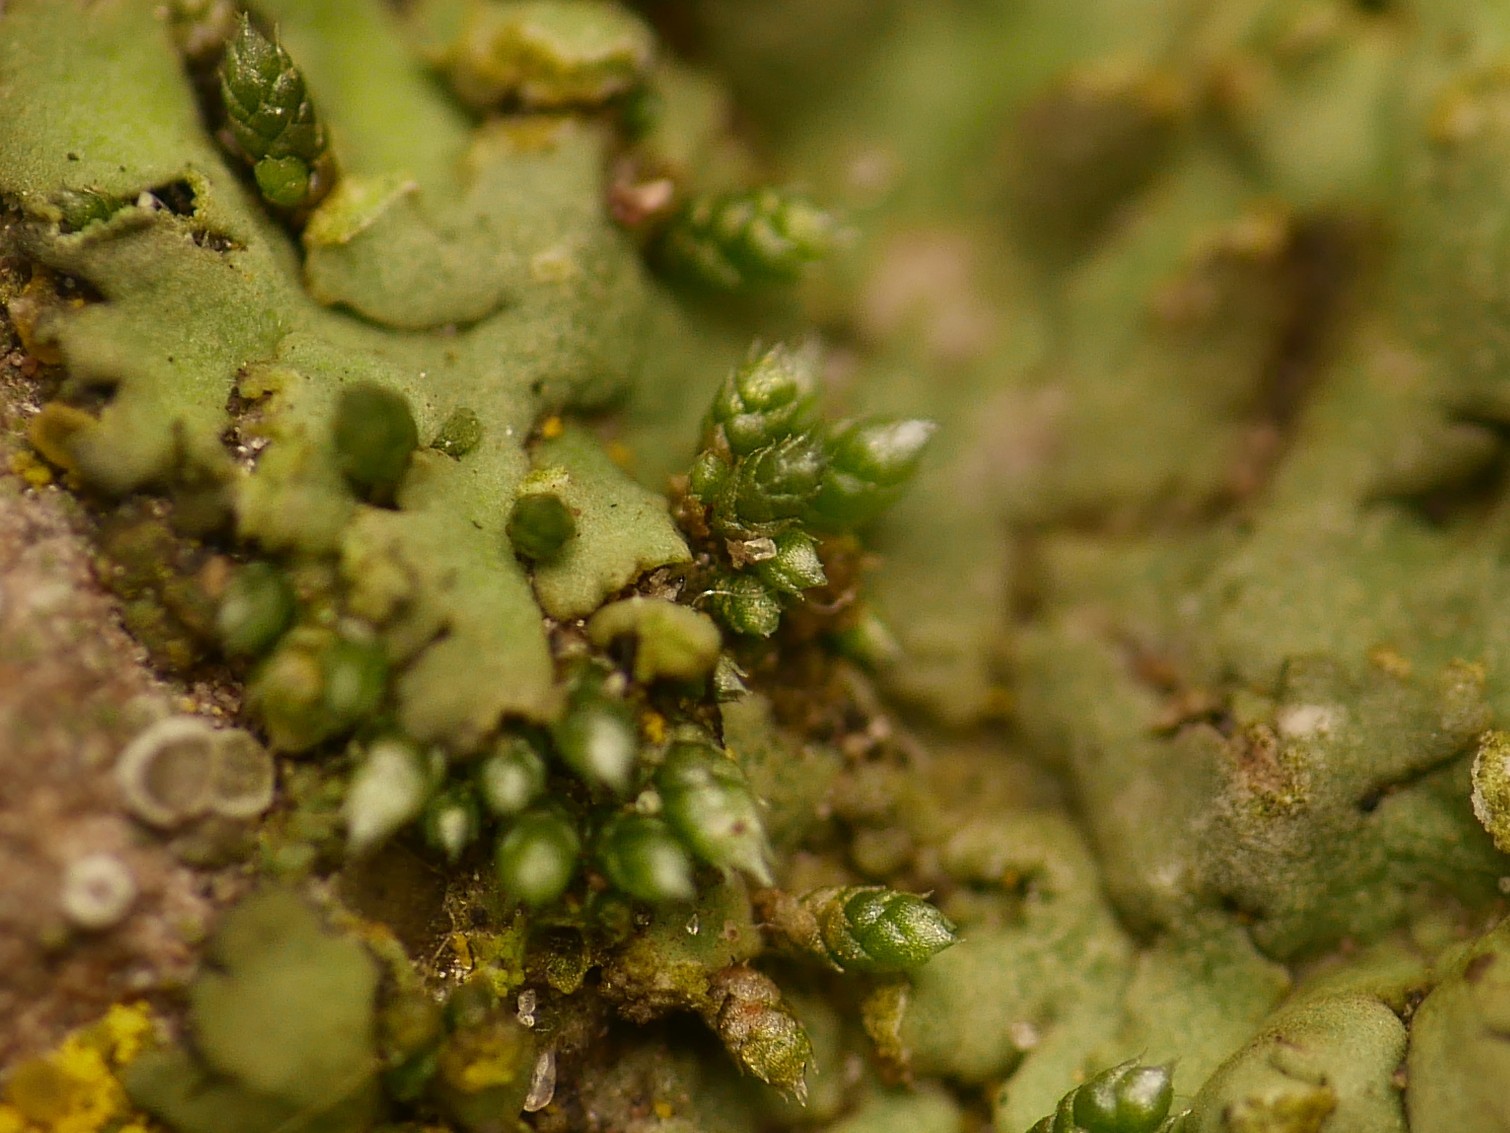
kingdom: Plantae
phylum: Bryophyta
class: Bryopsida
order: Bryales
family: Bryaceae
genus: Bryum
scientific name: Bryum argenteum
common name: Silver-moss
